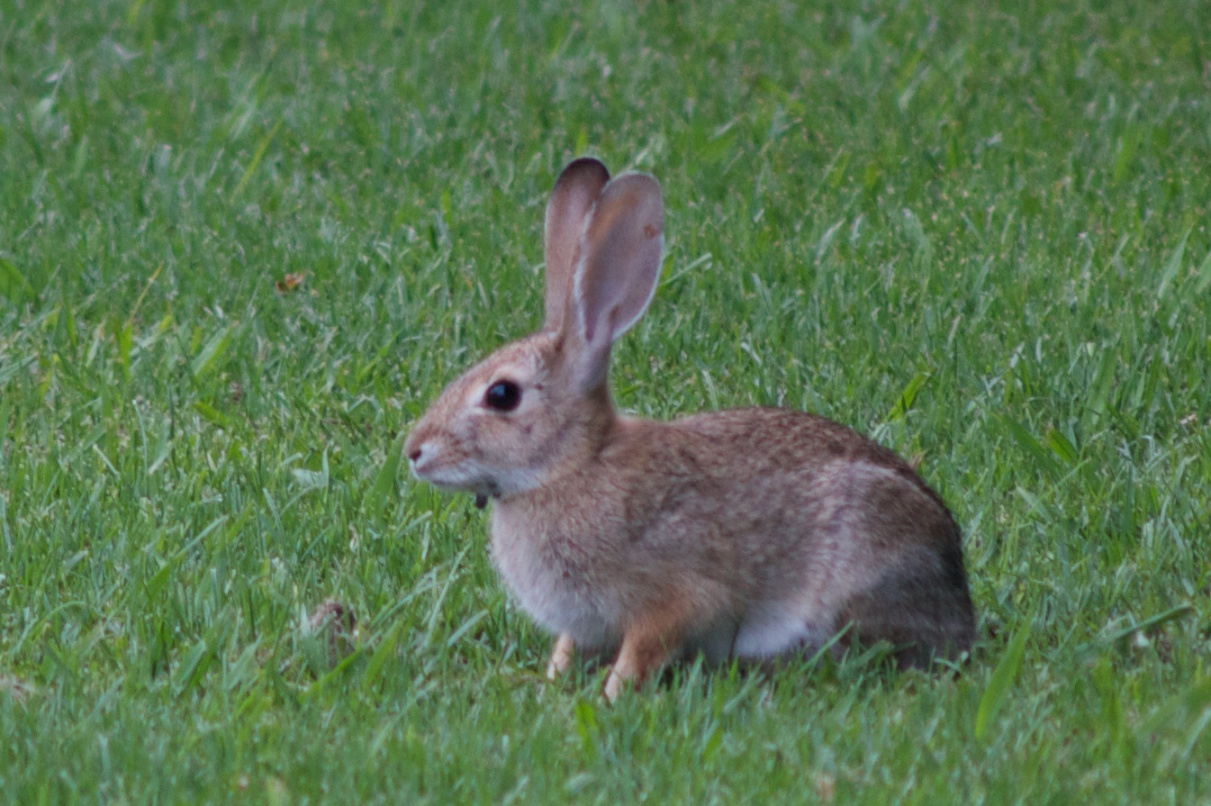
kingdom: Animalia
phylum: Chordata
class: Mammalia
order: Lagomorpha
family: Leporidae
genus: Sylvilagus
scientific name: Sylvilagus audubonii
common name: Desert cottontail
